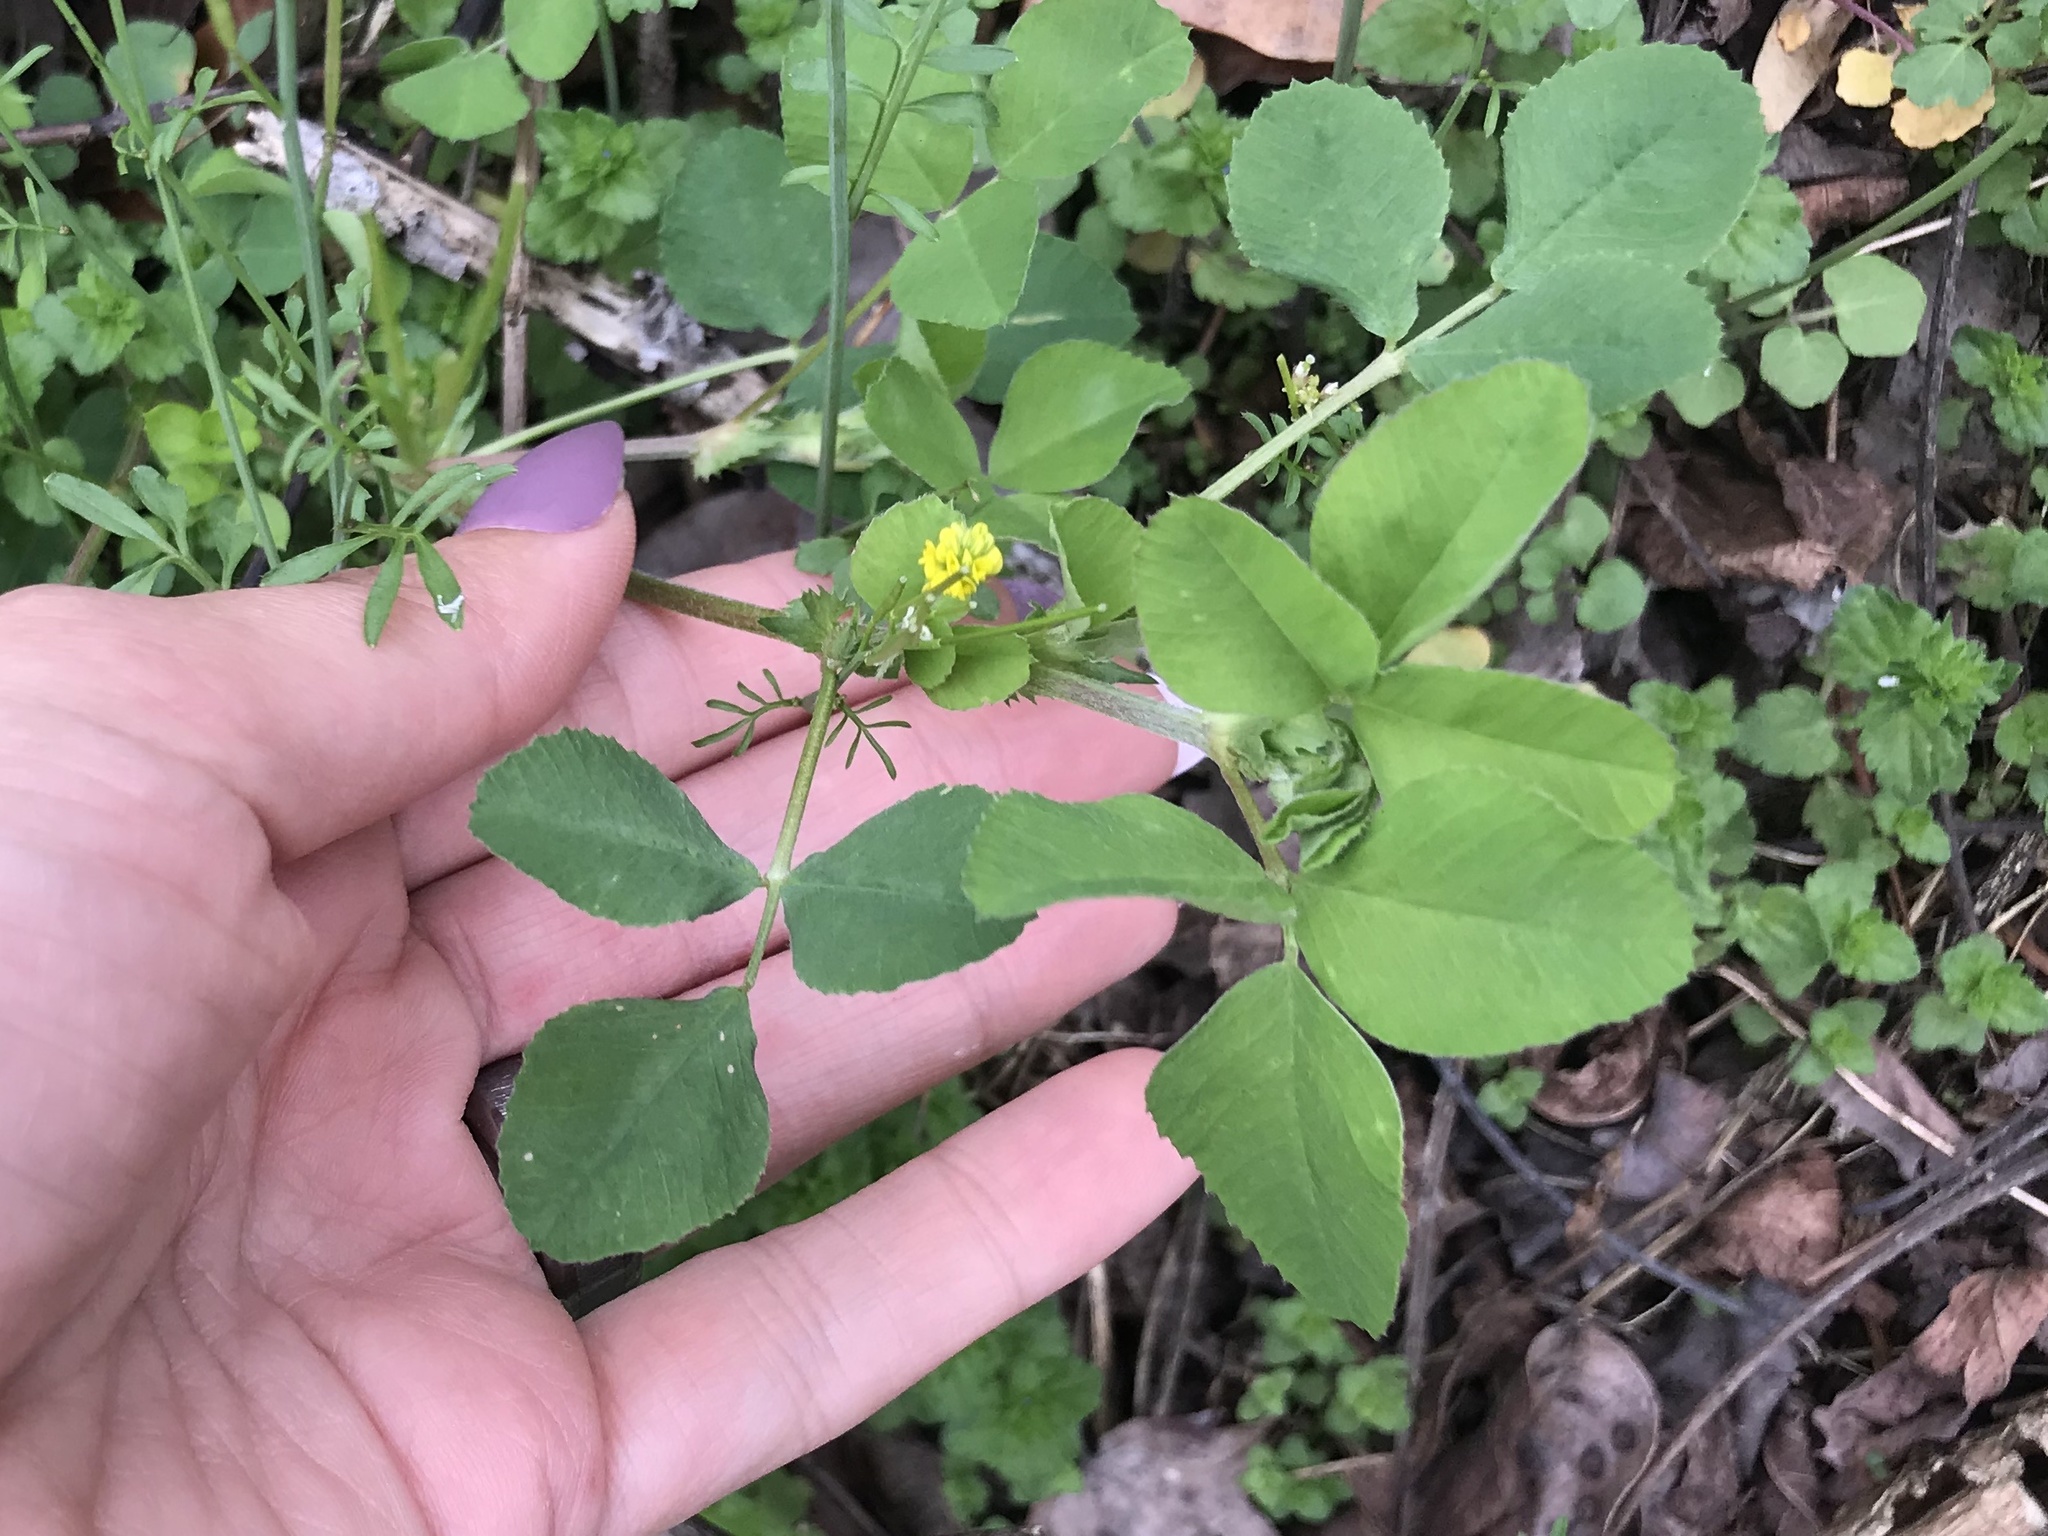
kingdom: Plantae
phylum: Tracheophyta
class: Magnoliopsida
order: Fabales
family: Fabaceae
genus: Medicago
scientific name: Medicago lupulina
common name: Black medick
